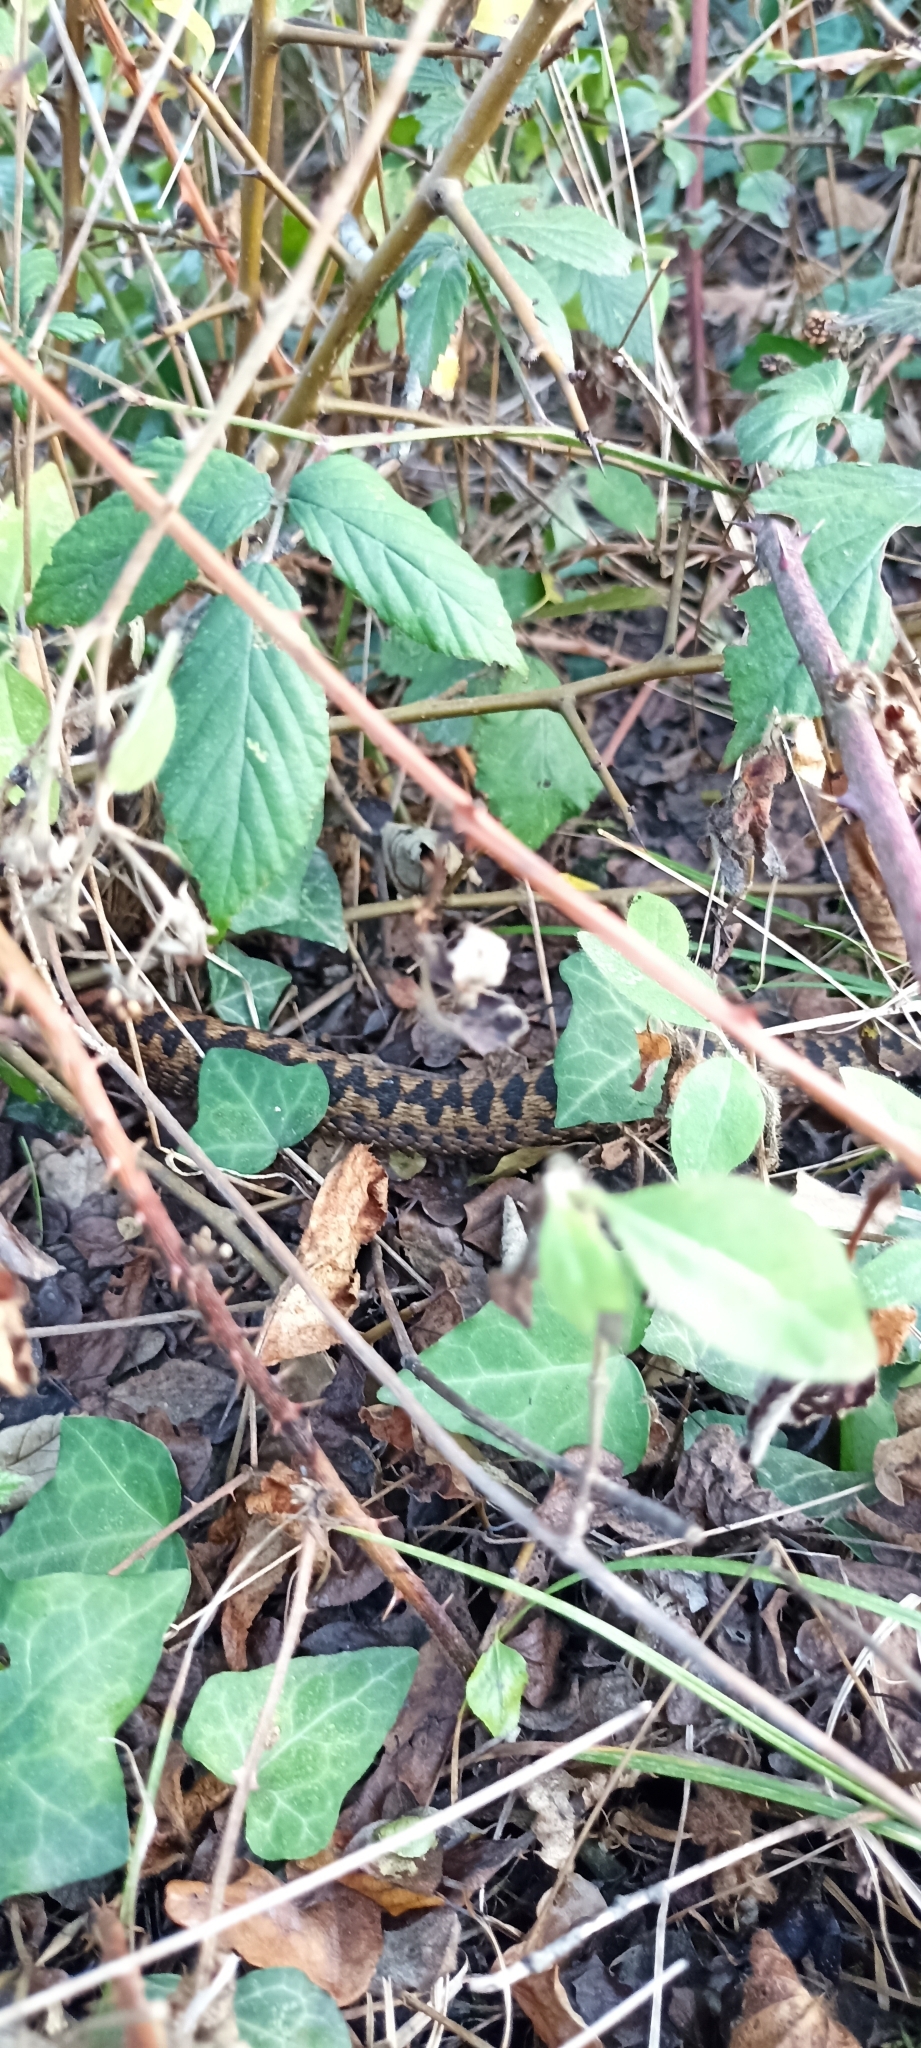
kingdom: Animalia
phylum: Chordata
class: Squamata
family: Viperidae
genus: Vipera
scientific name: Vipera berus
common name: Adder
